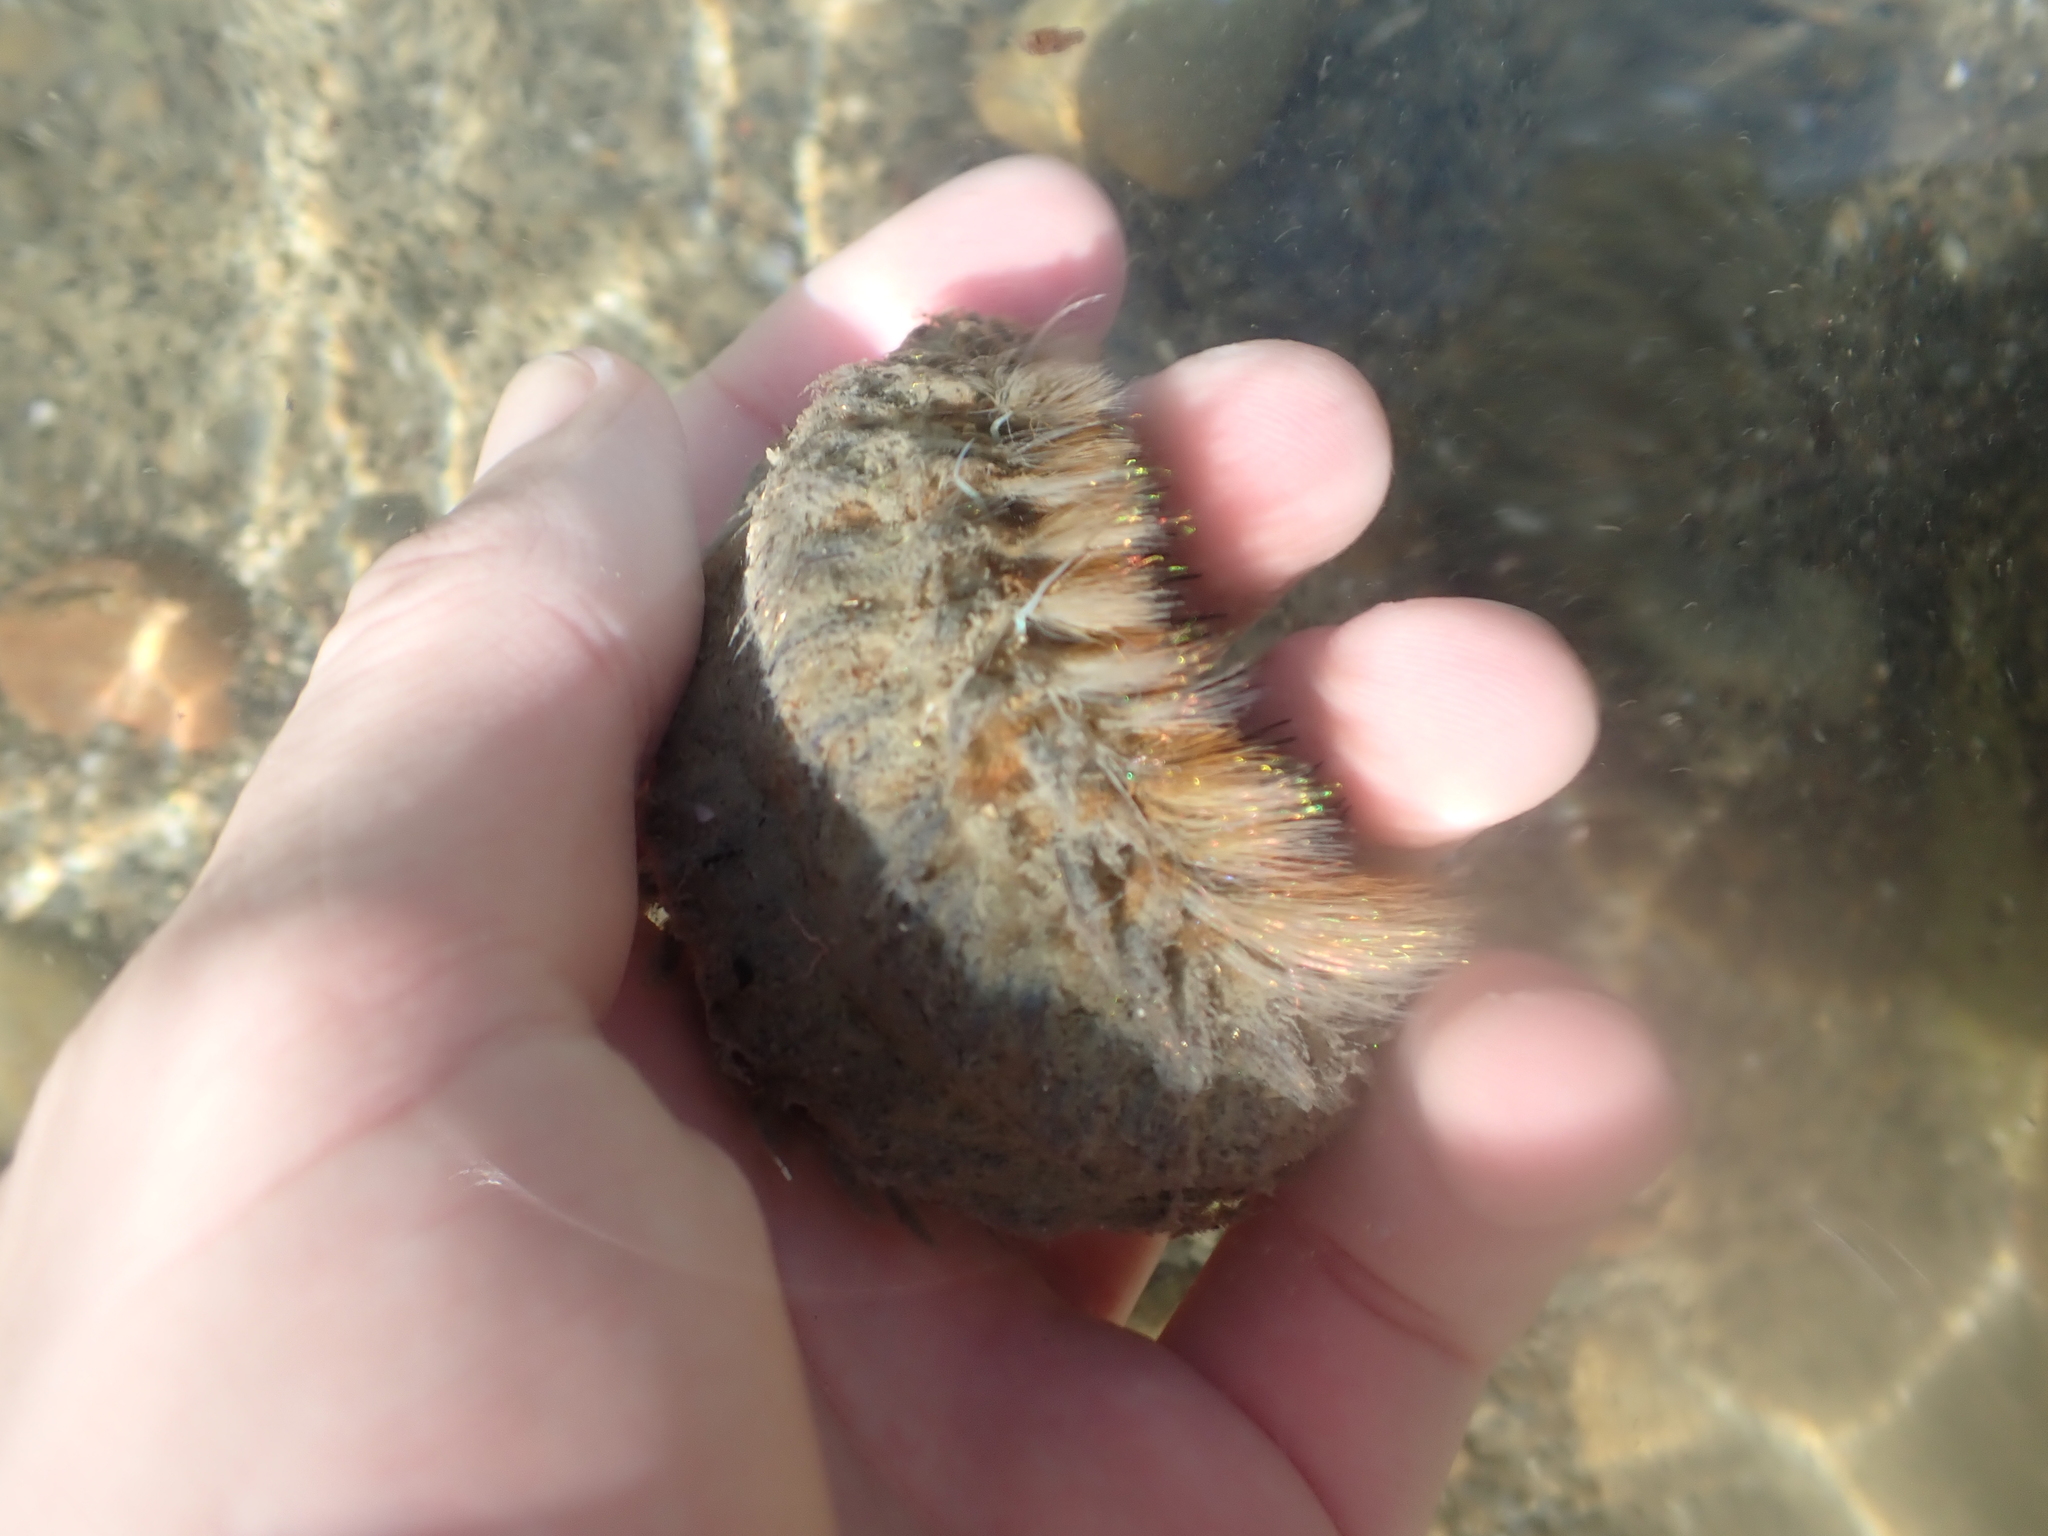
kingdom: Animalia
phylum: Annelida
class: Polychaeta
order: Phyllodocida
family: Aphroditidae
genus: Aphrodita
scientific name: Aphrodita talpa
